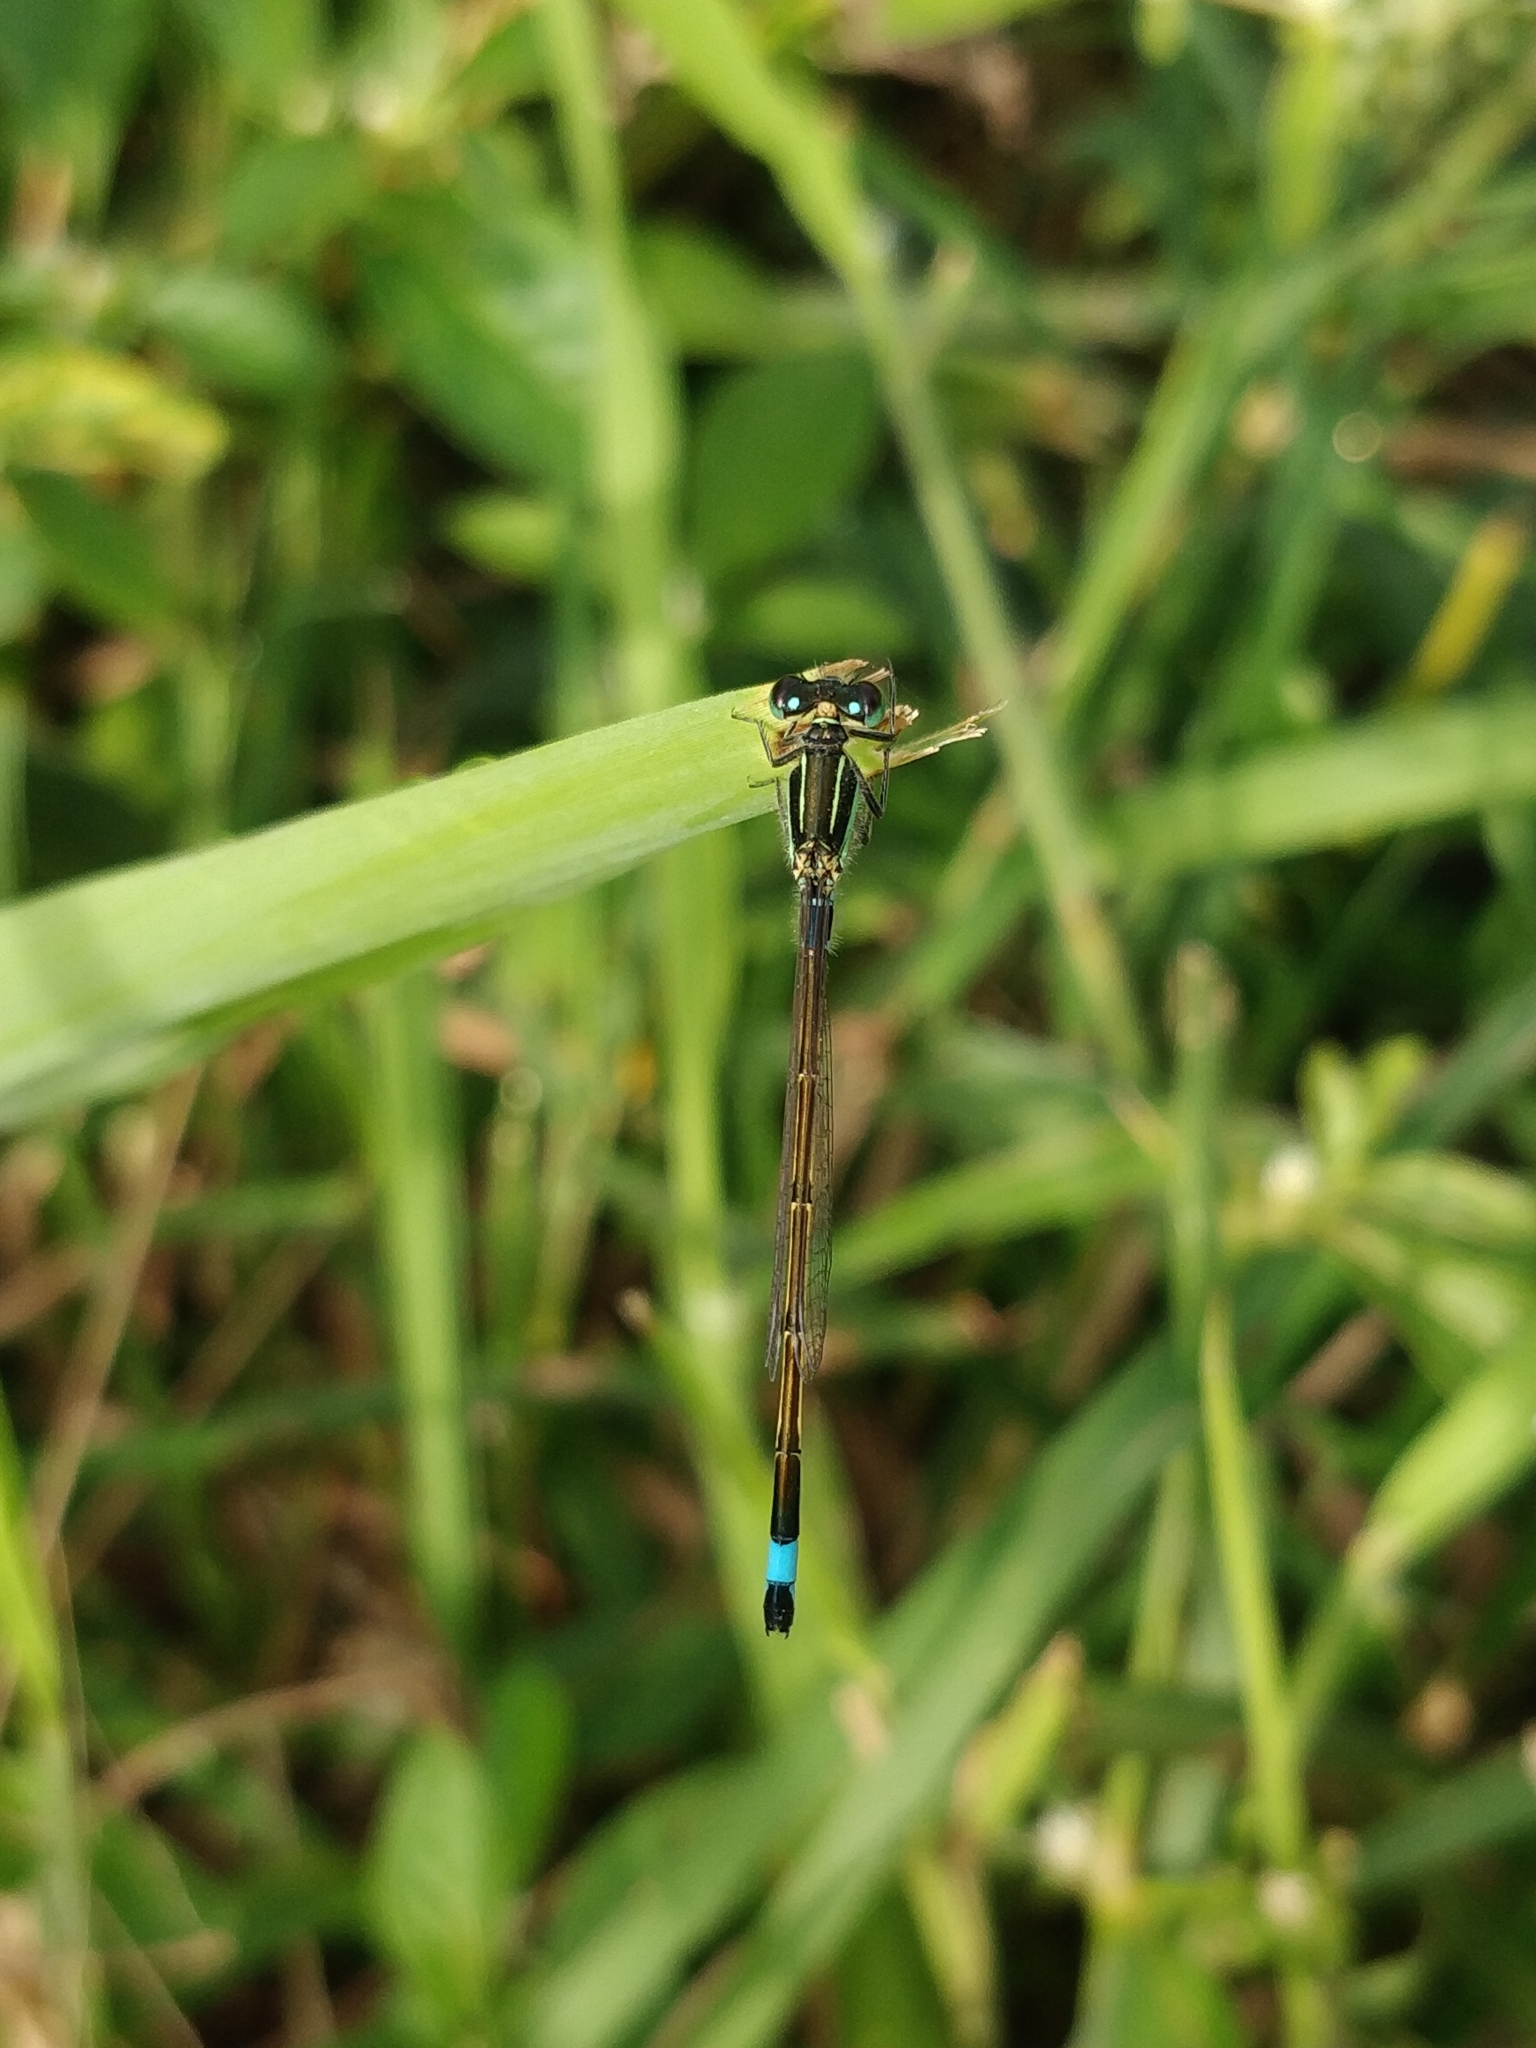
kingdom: Animalia
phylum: Arthropoda
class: Insecta
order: Odonata
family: Coenagrionidae
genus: Ischnura
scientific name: Ischnura senegalensis
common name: Tropical bluetail
